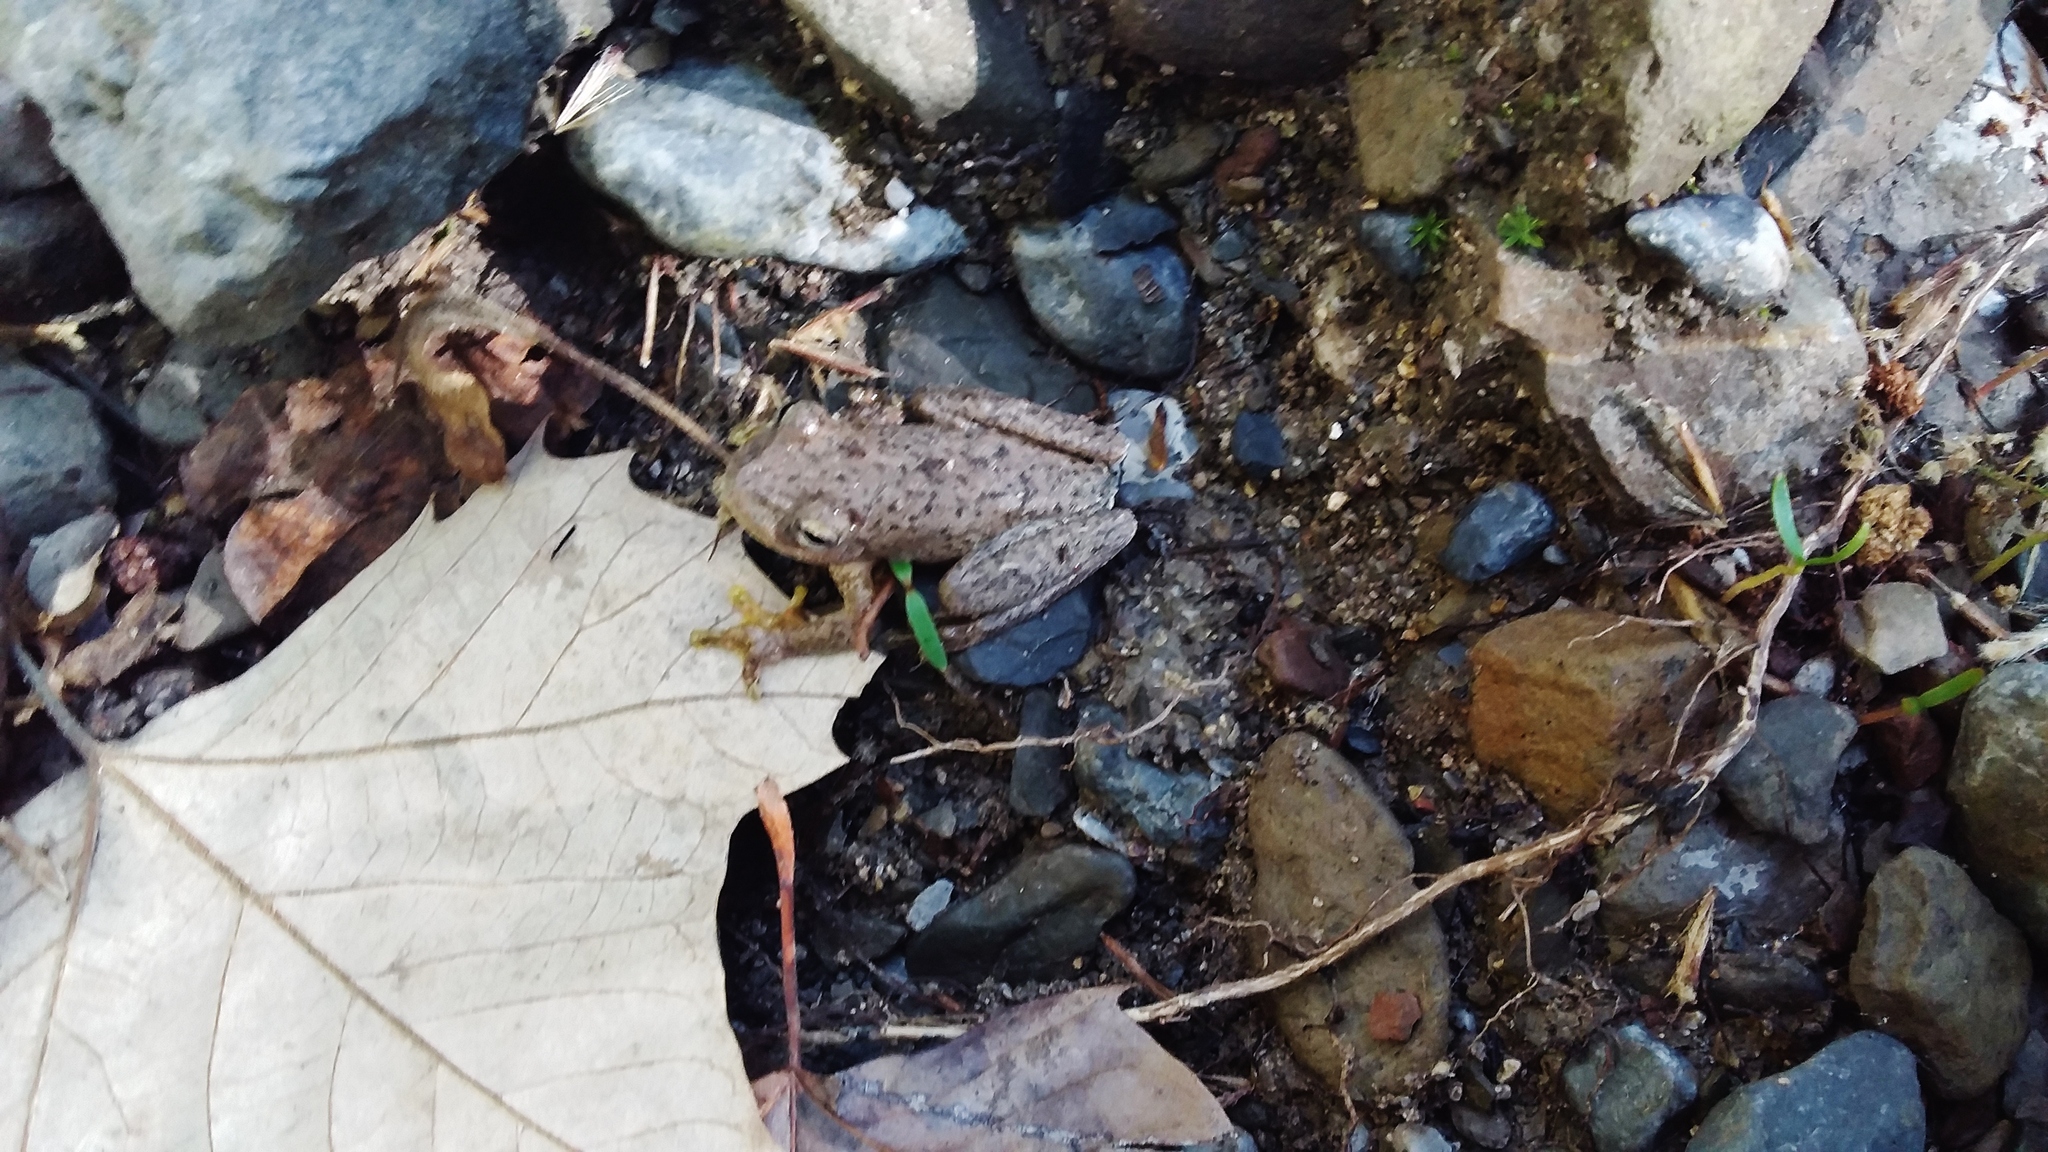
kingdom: Animalia
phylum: Chordata
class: Amphibia
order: Anura
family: Hylidae
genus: Rheohyla
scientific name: Rheohyla miotympanum
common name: Small-eard hyla
